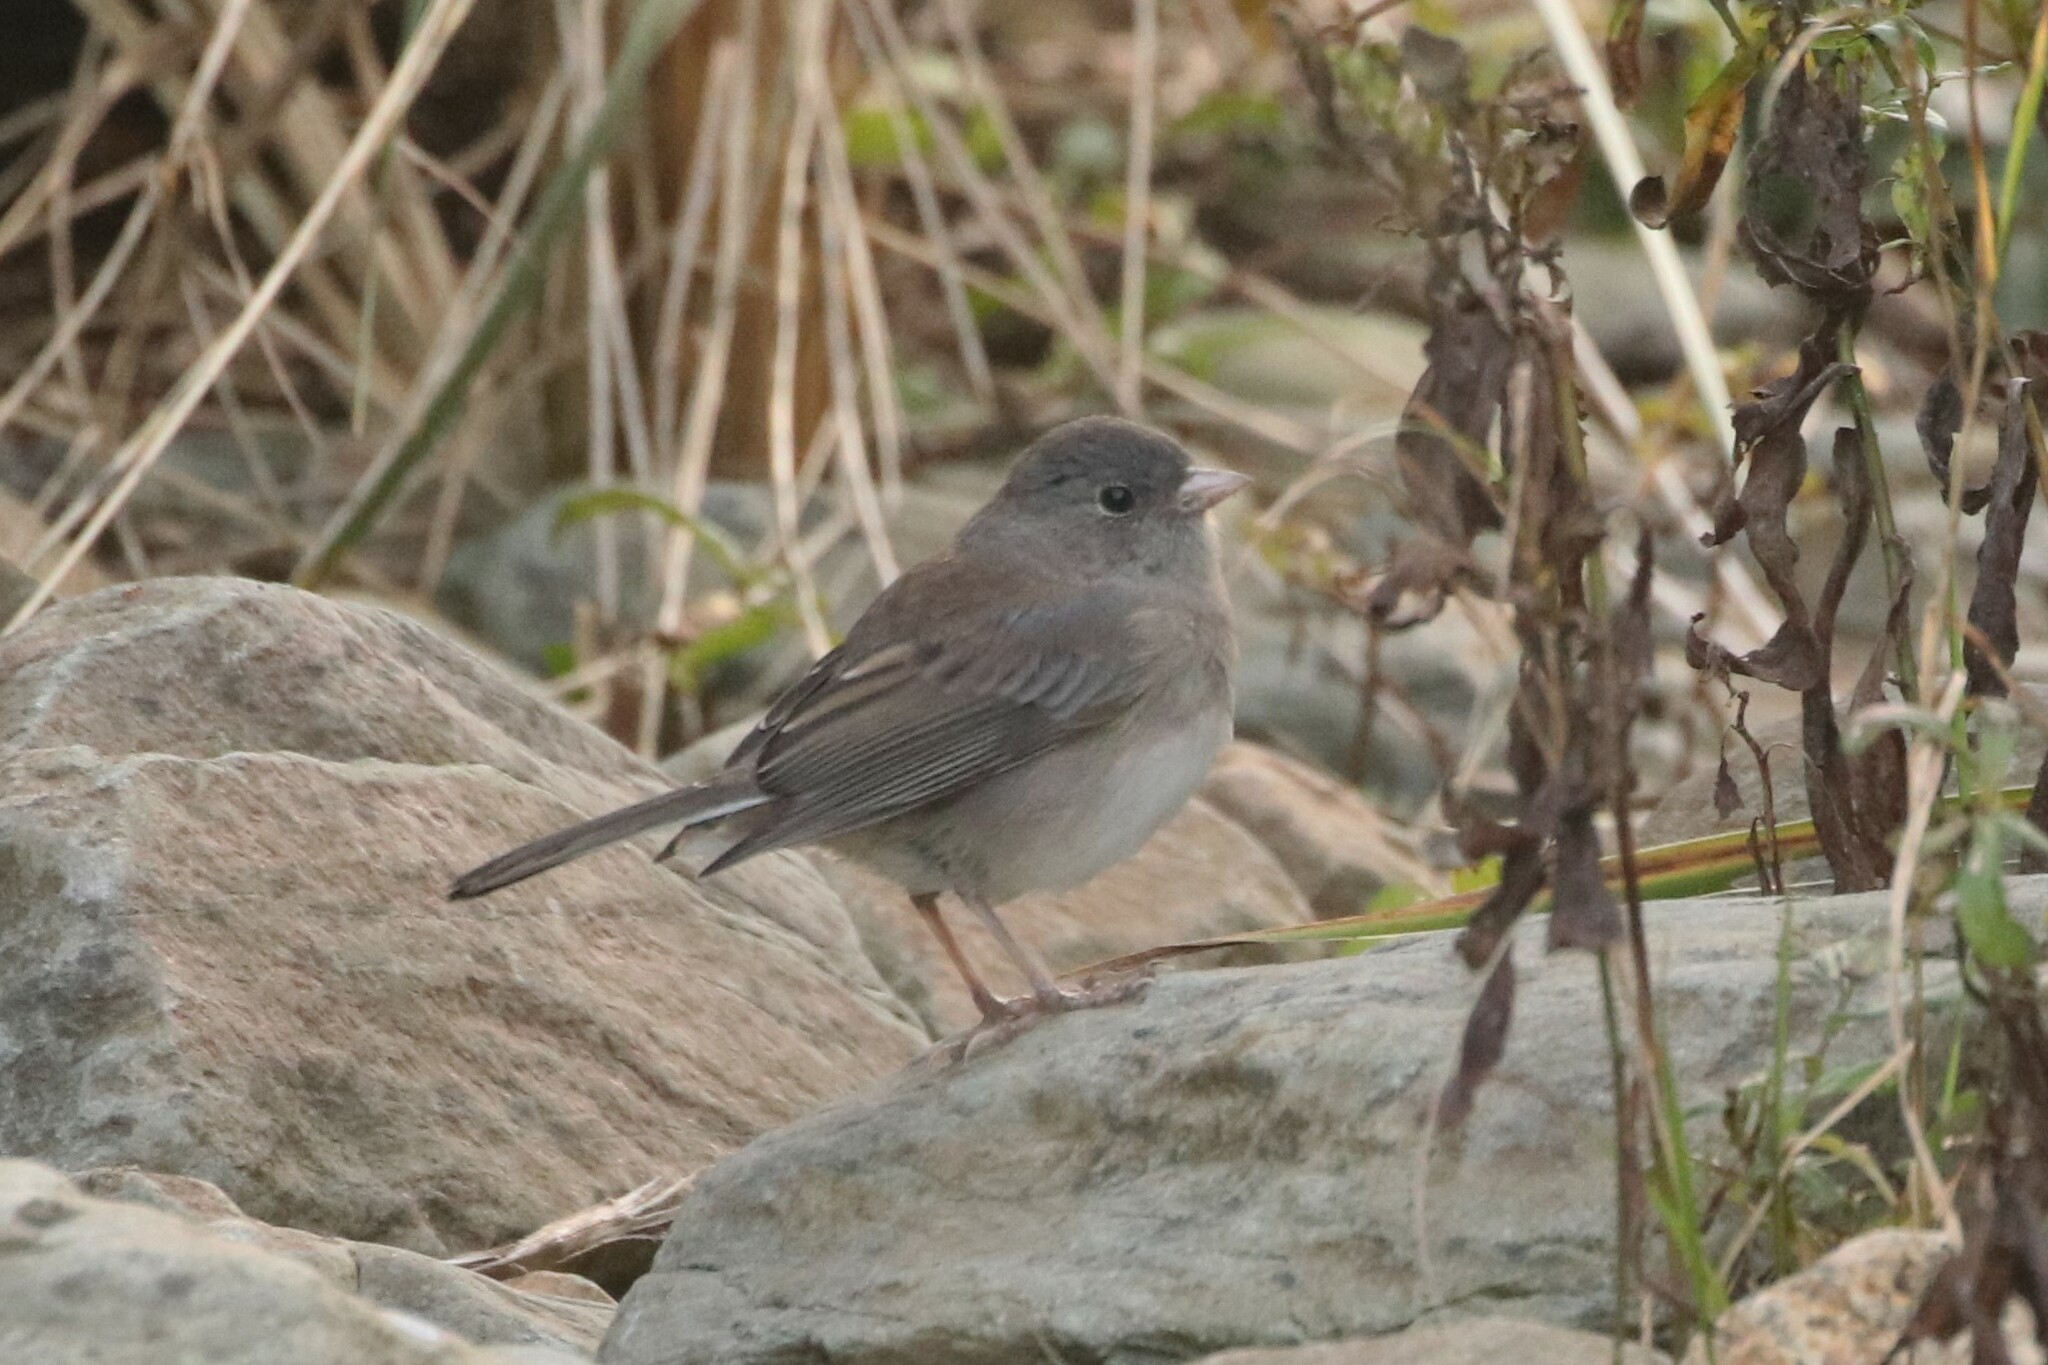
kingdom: Animalia
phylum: Chordata
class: Aves
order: Passeriformes
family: Passerellidae
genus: Junco
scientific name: Junco hyemalis
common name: Dark-eyed junco
